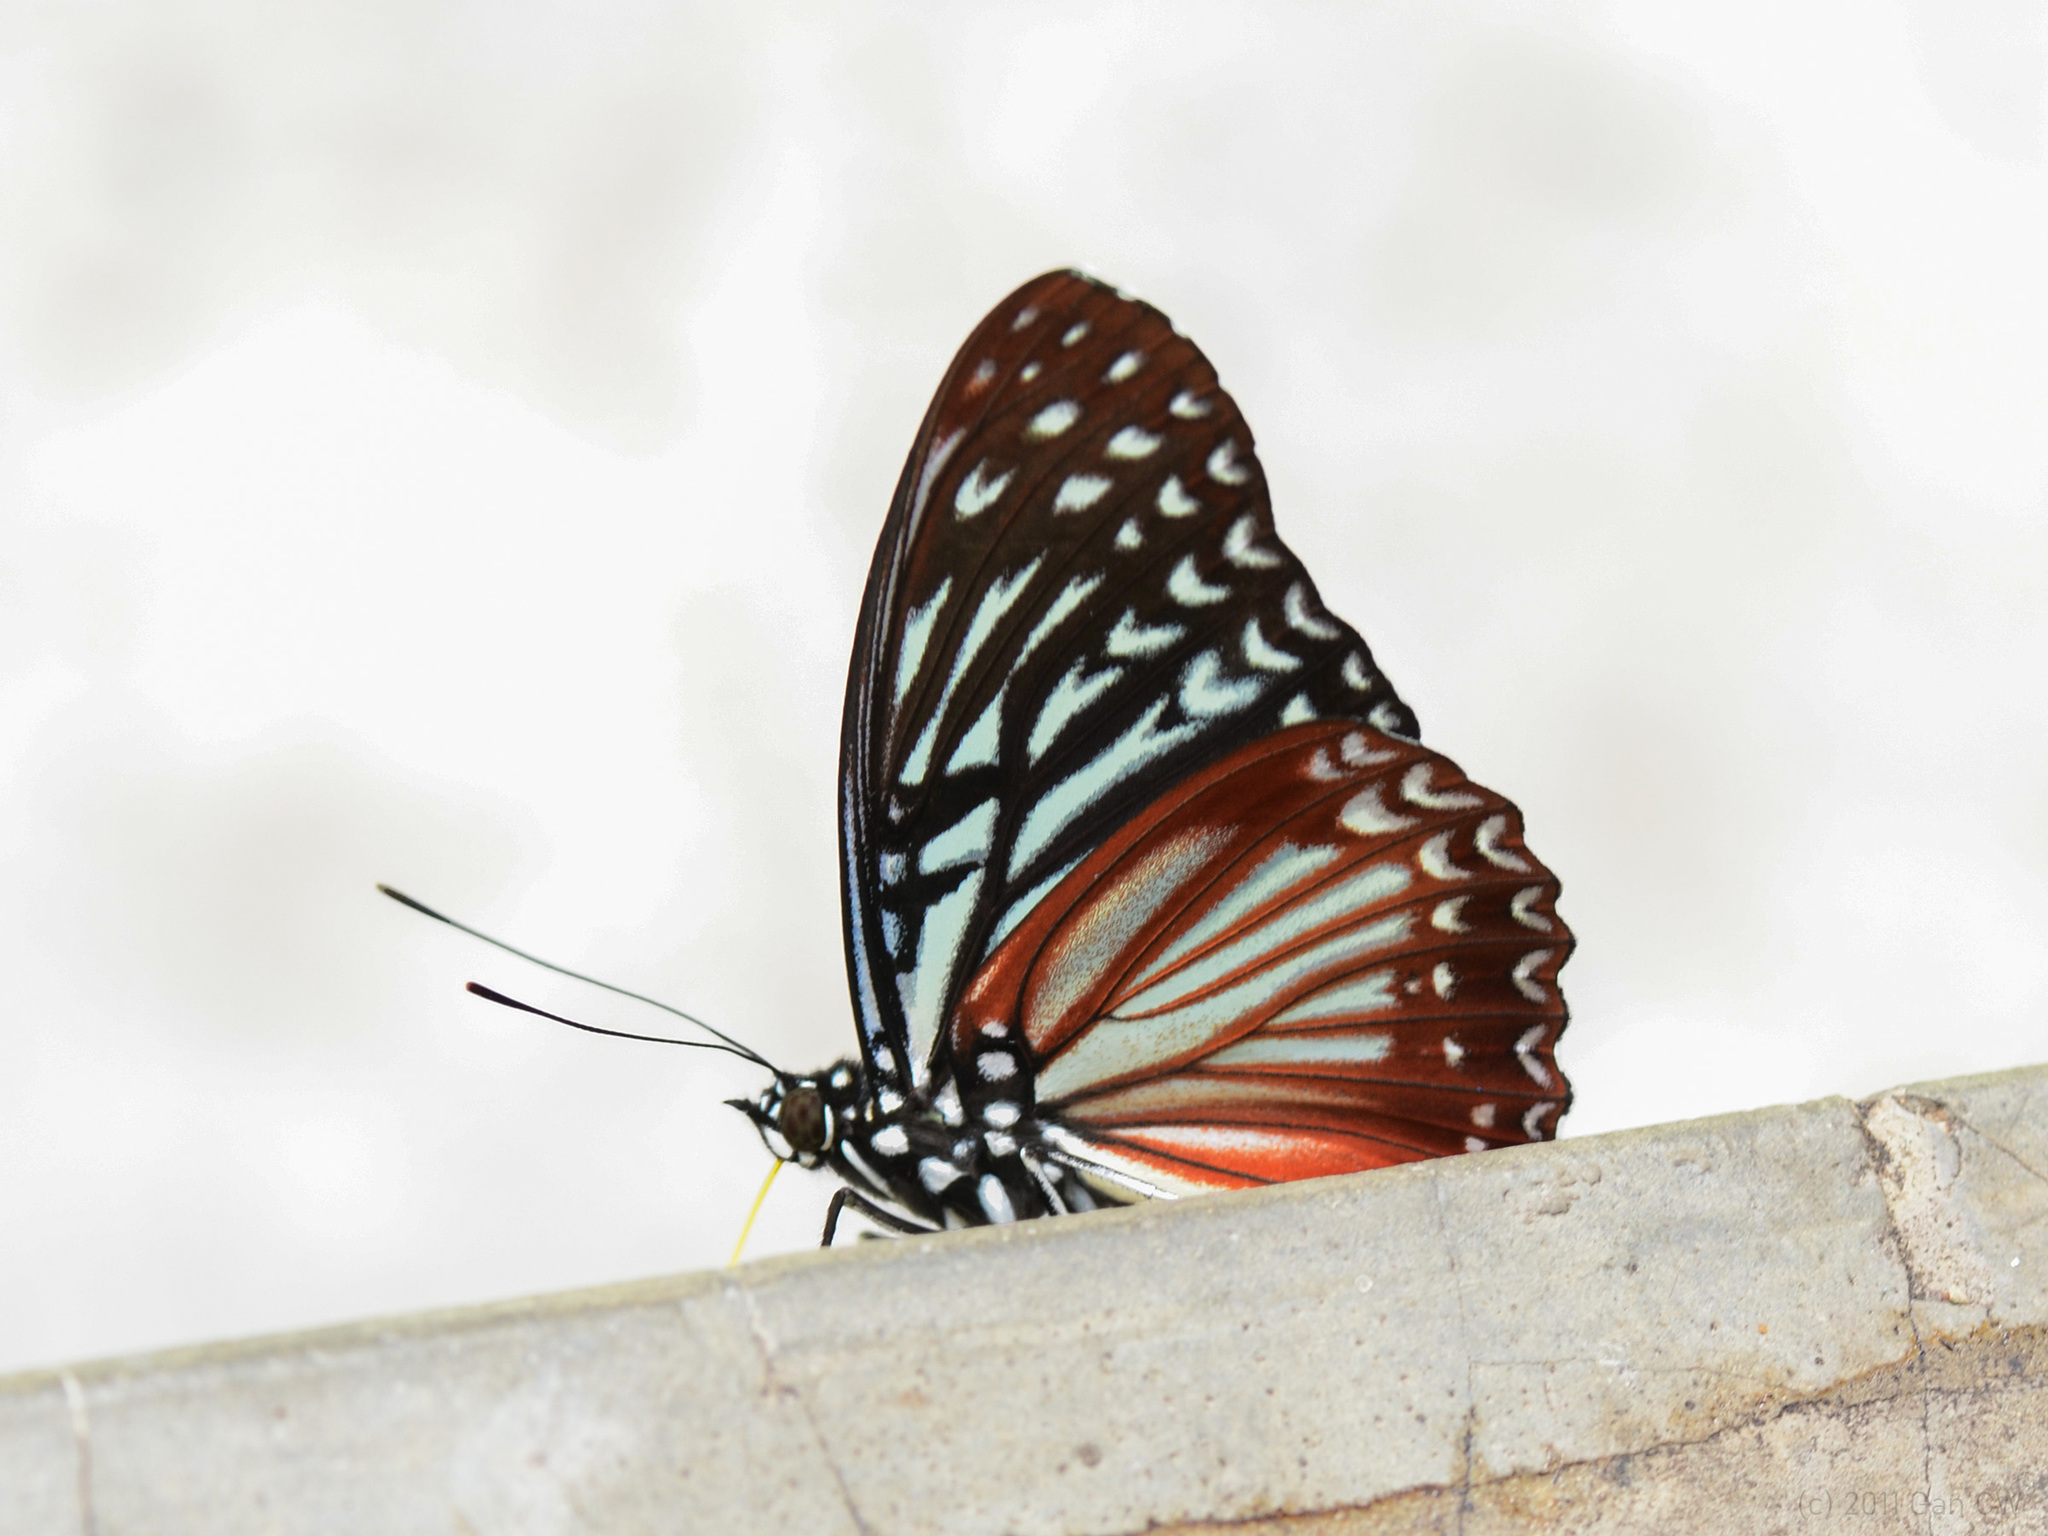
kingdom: Animalia
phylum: Arthropoda
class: Insecta
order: Lepidoptera
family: Nymphalidae
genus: Hestinalis
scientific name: Hestinalis mimetica
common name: Malayan circe
